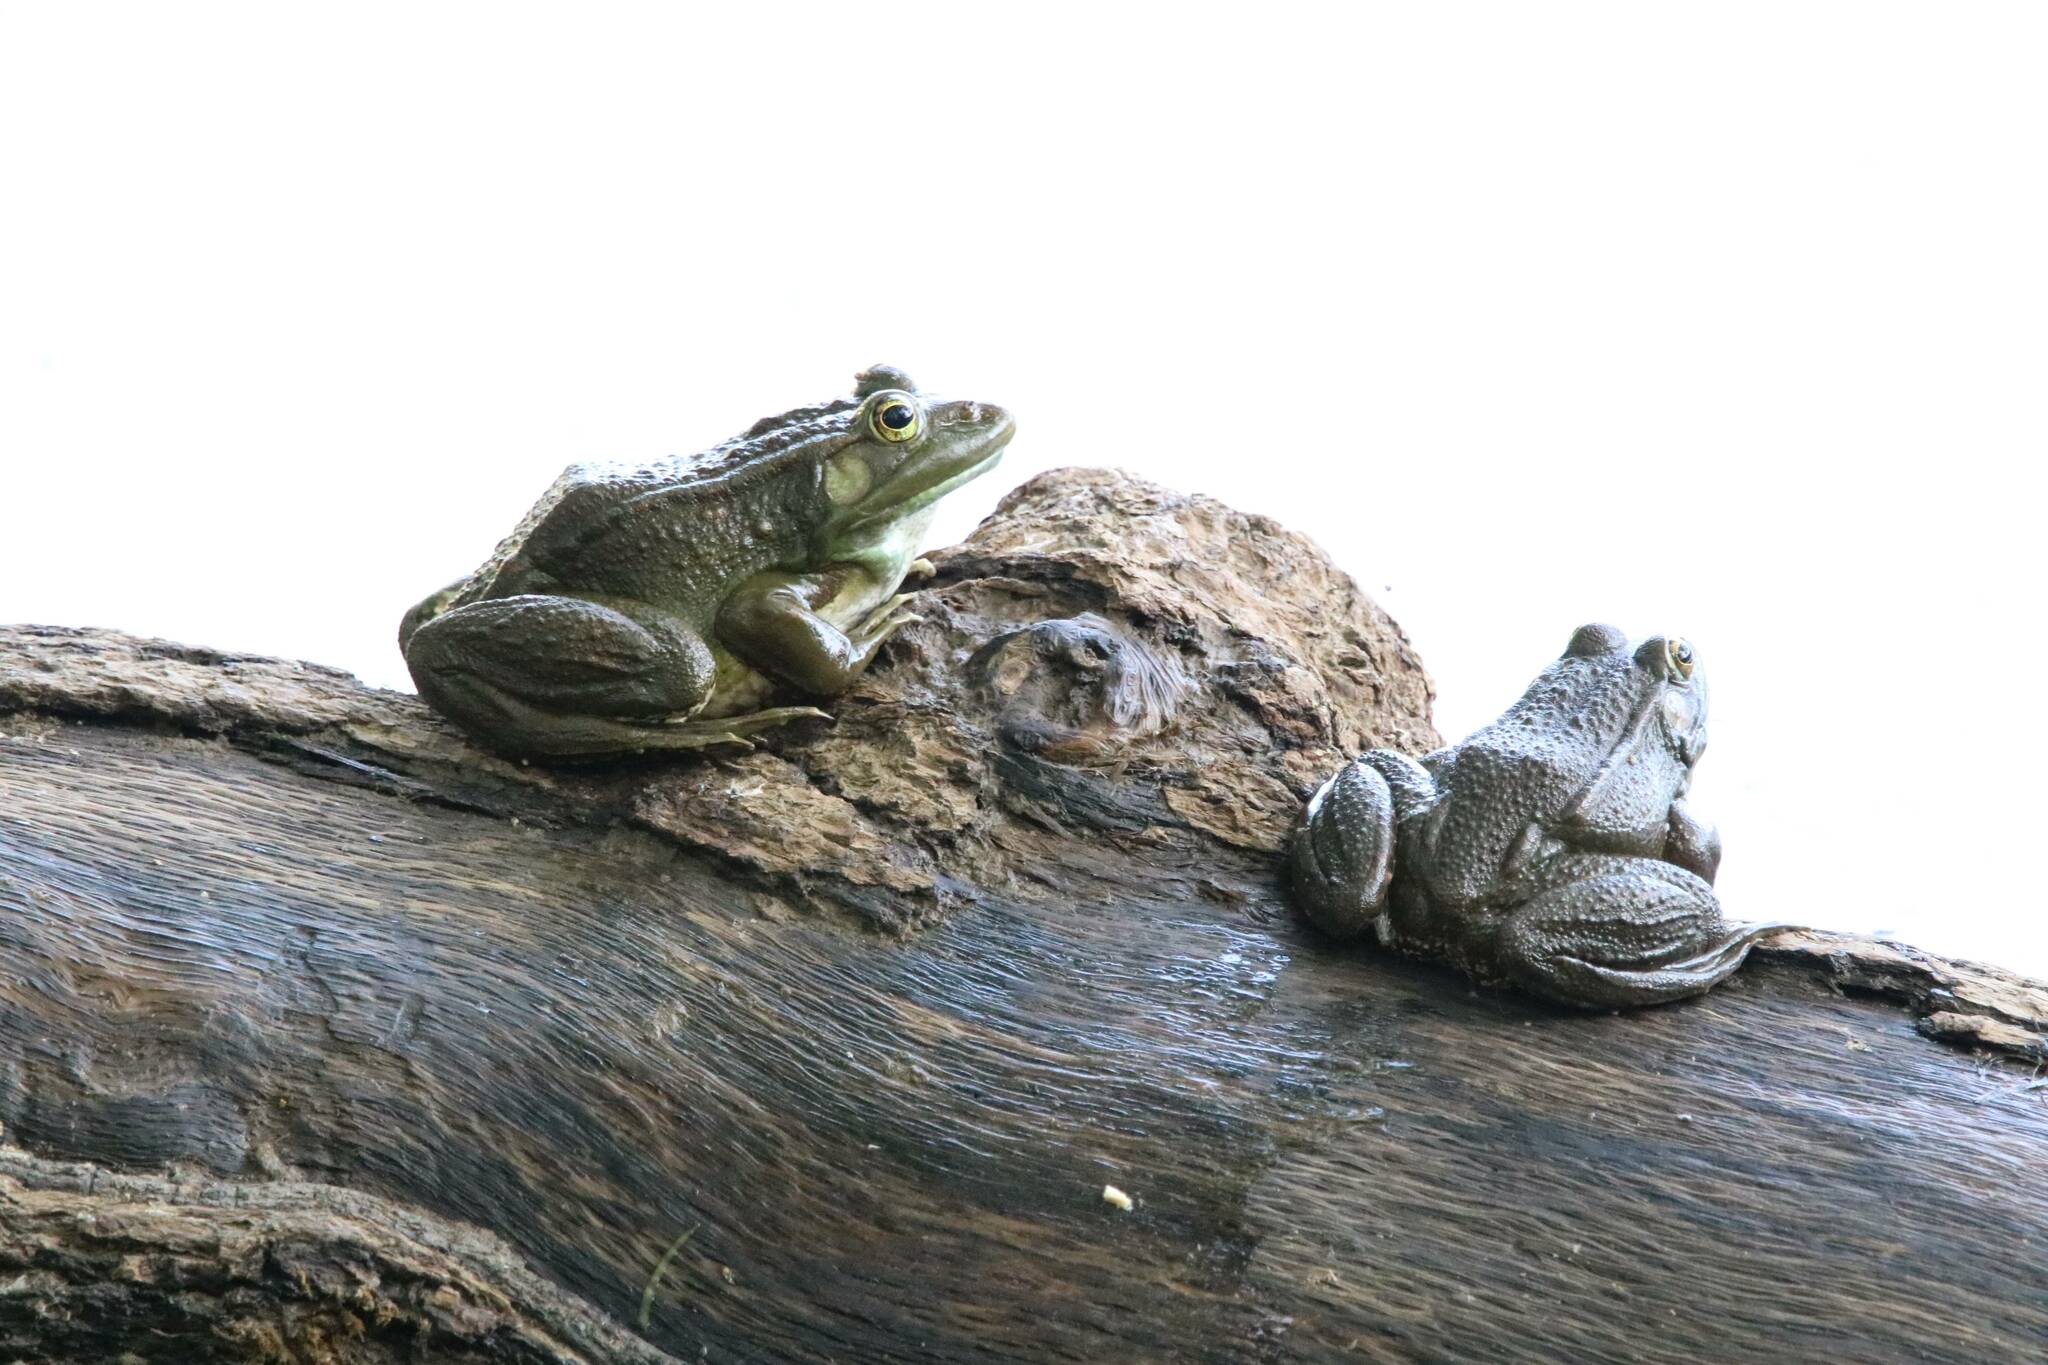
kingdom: Animalia
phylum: Chordata
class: Amphibia
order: Anura
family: Ranidae
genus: Pelophylax
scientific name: Pelophylax saharicus
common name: Sahara frog
